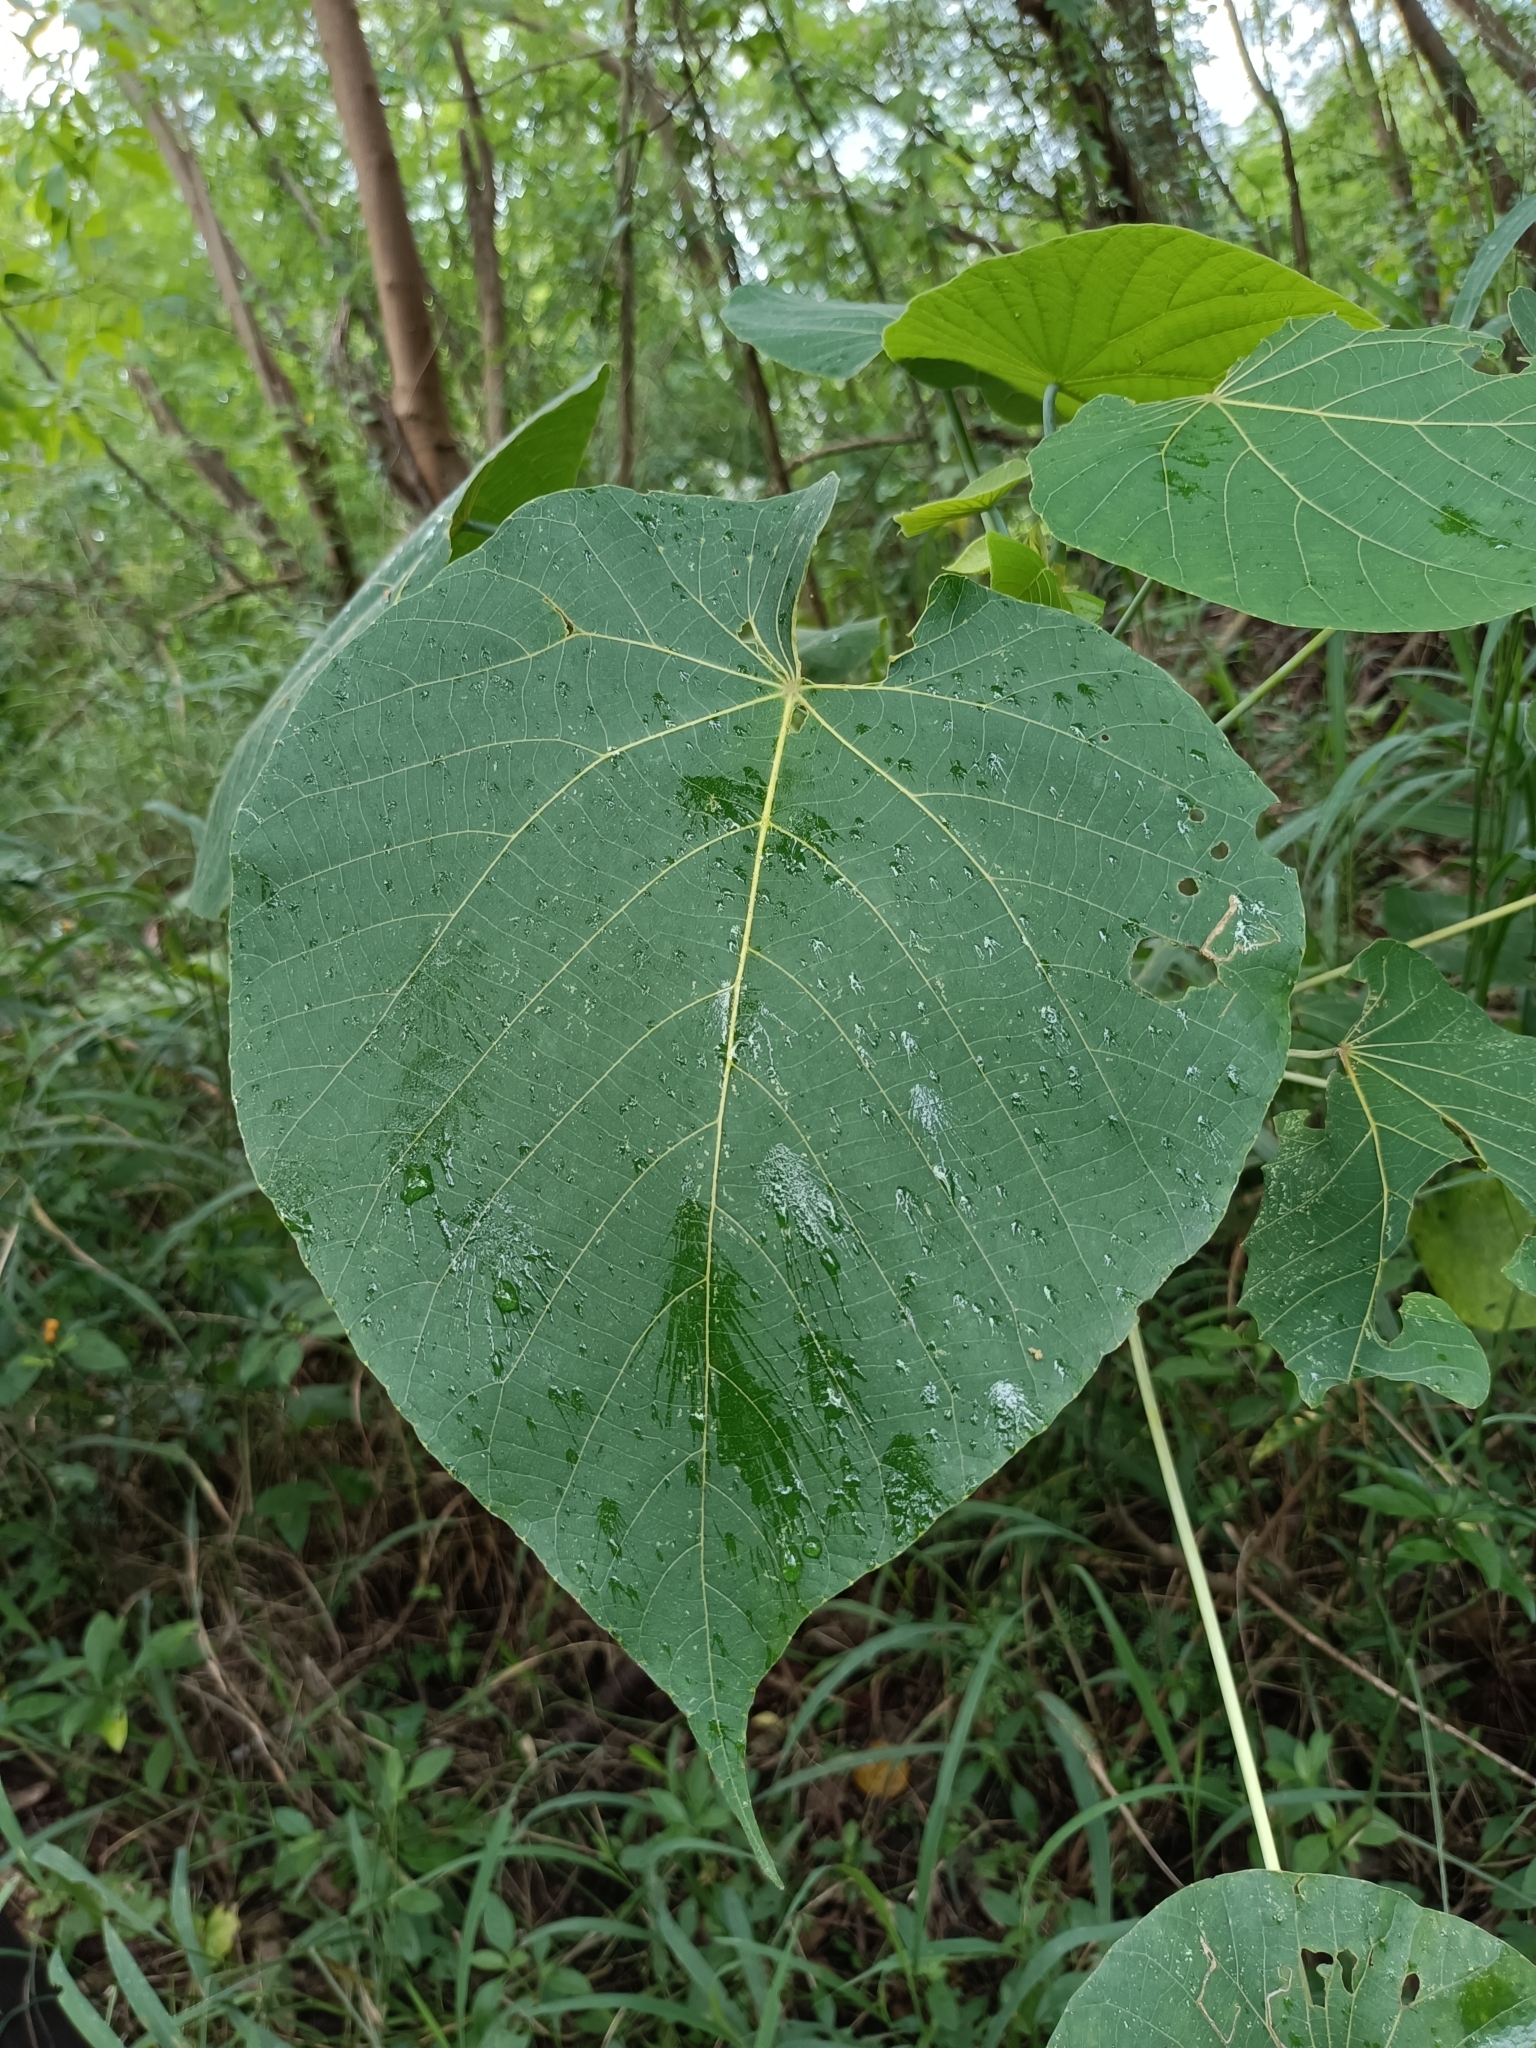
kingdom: Plantae
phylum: Tracheophyta
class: Magnoliopsida
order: Malpighiales
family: Euphorbiaceae
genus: Macaranga
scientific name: Macaranga tanarius
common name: Parasol leaf tree
